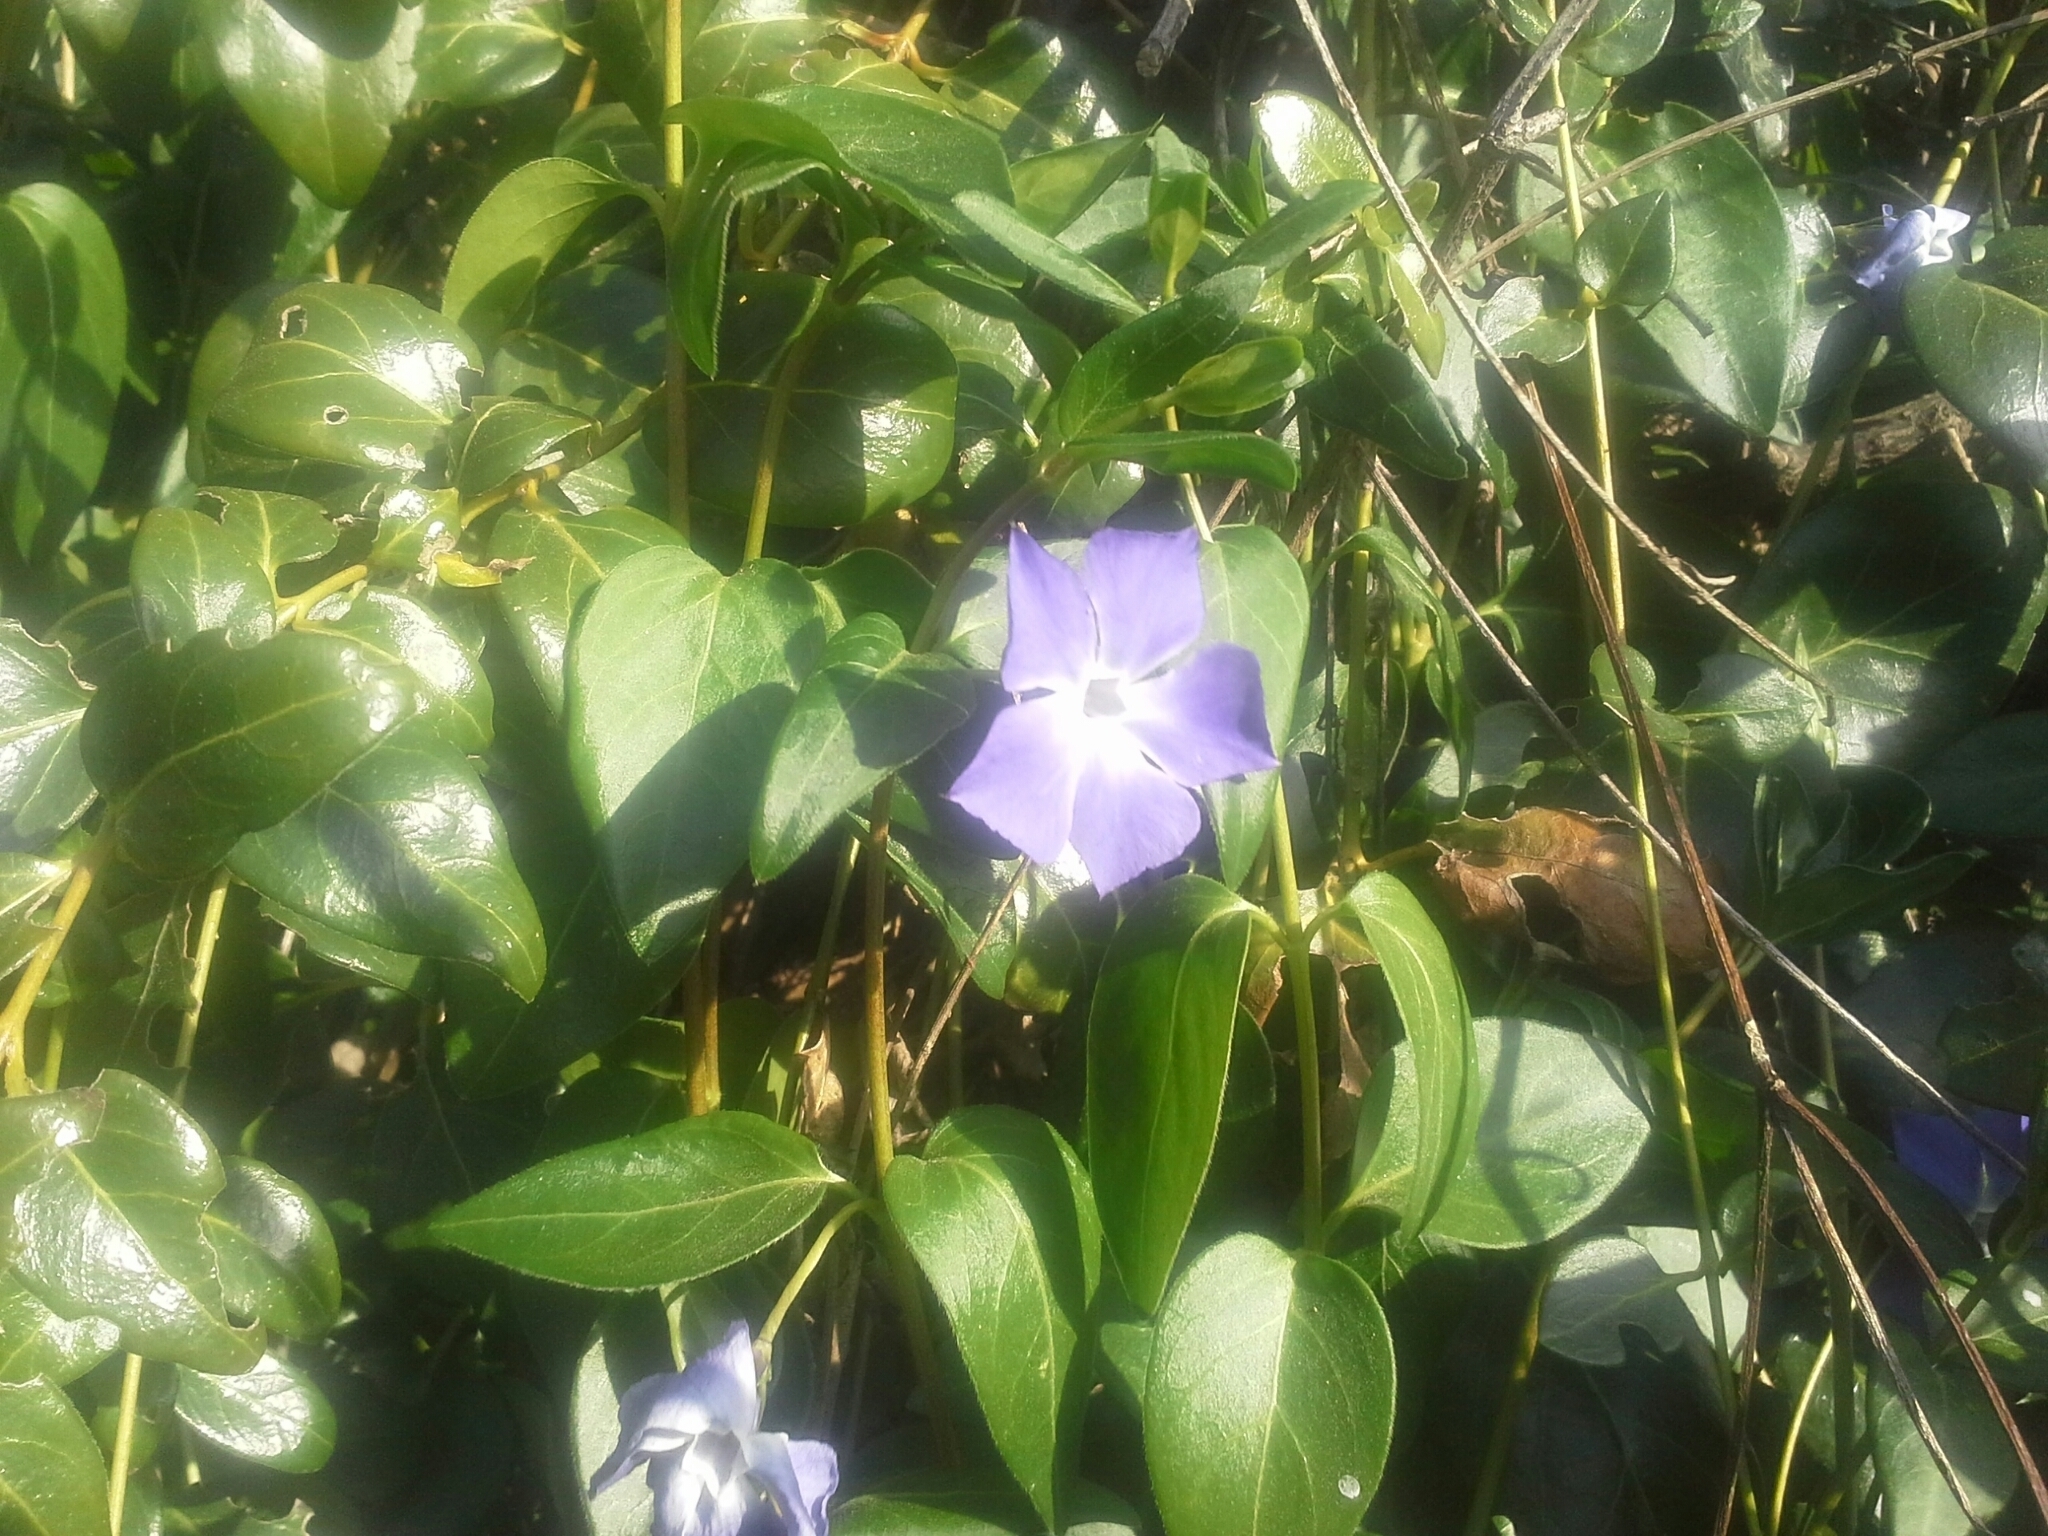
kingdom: Plantae
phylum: Tracheophyta
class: Magnoliopsida
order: Gentianales
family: Apocynaceae
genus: Vinca
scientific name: Vinca major
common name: Greater periwinkle
